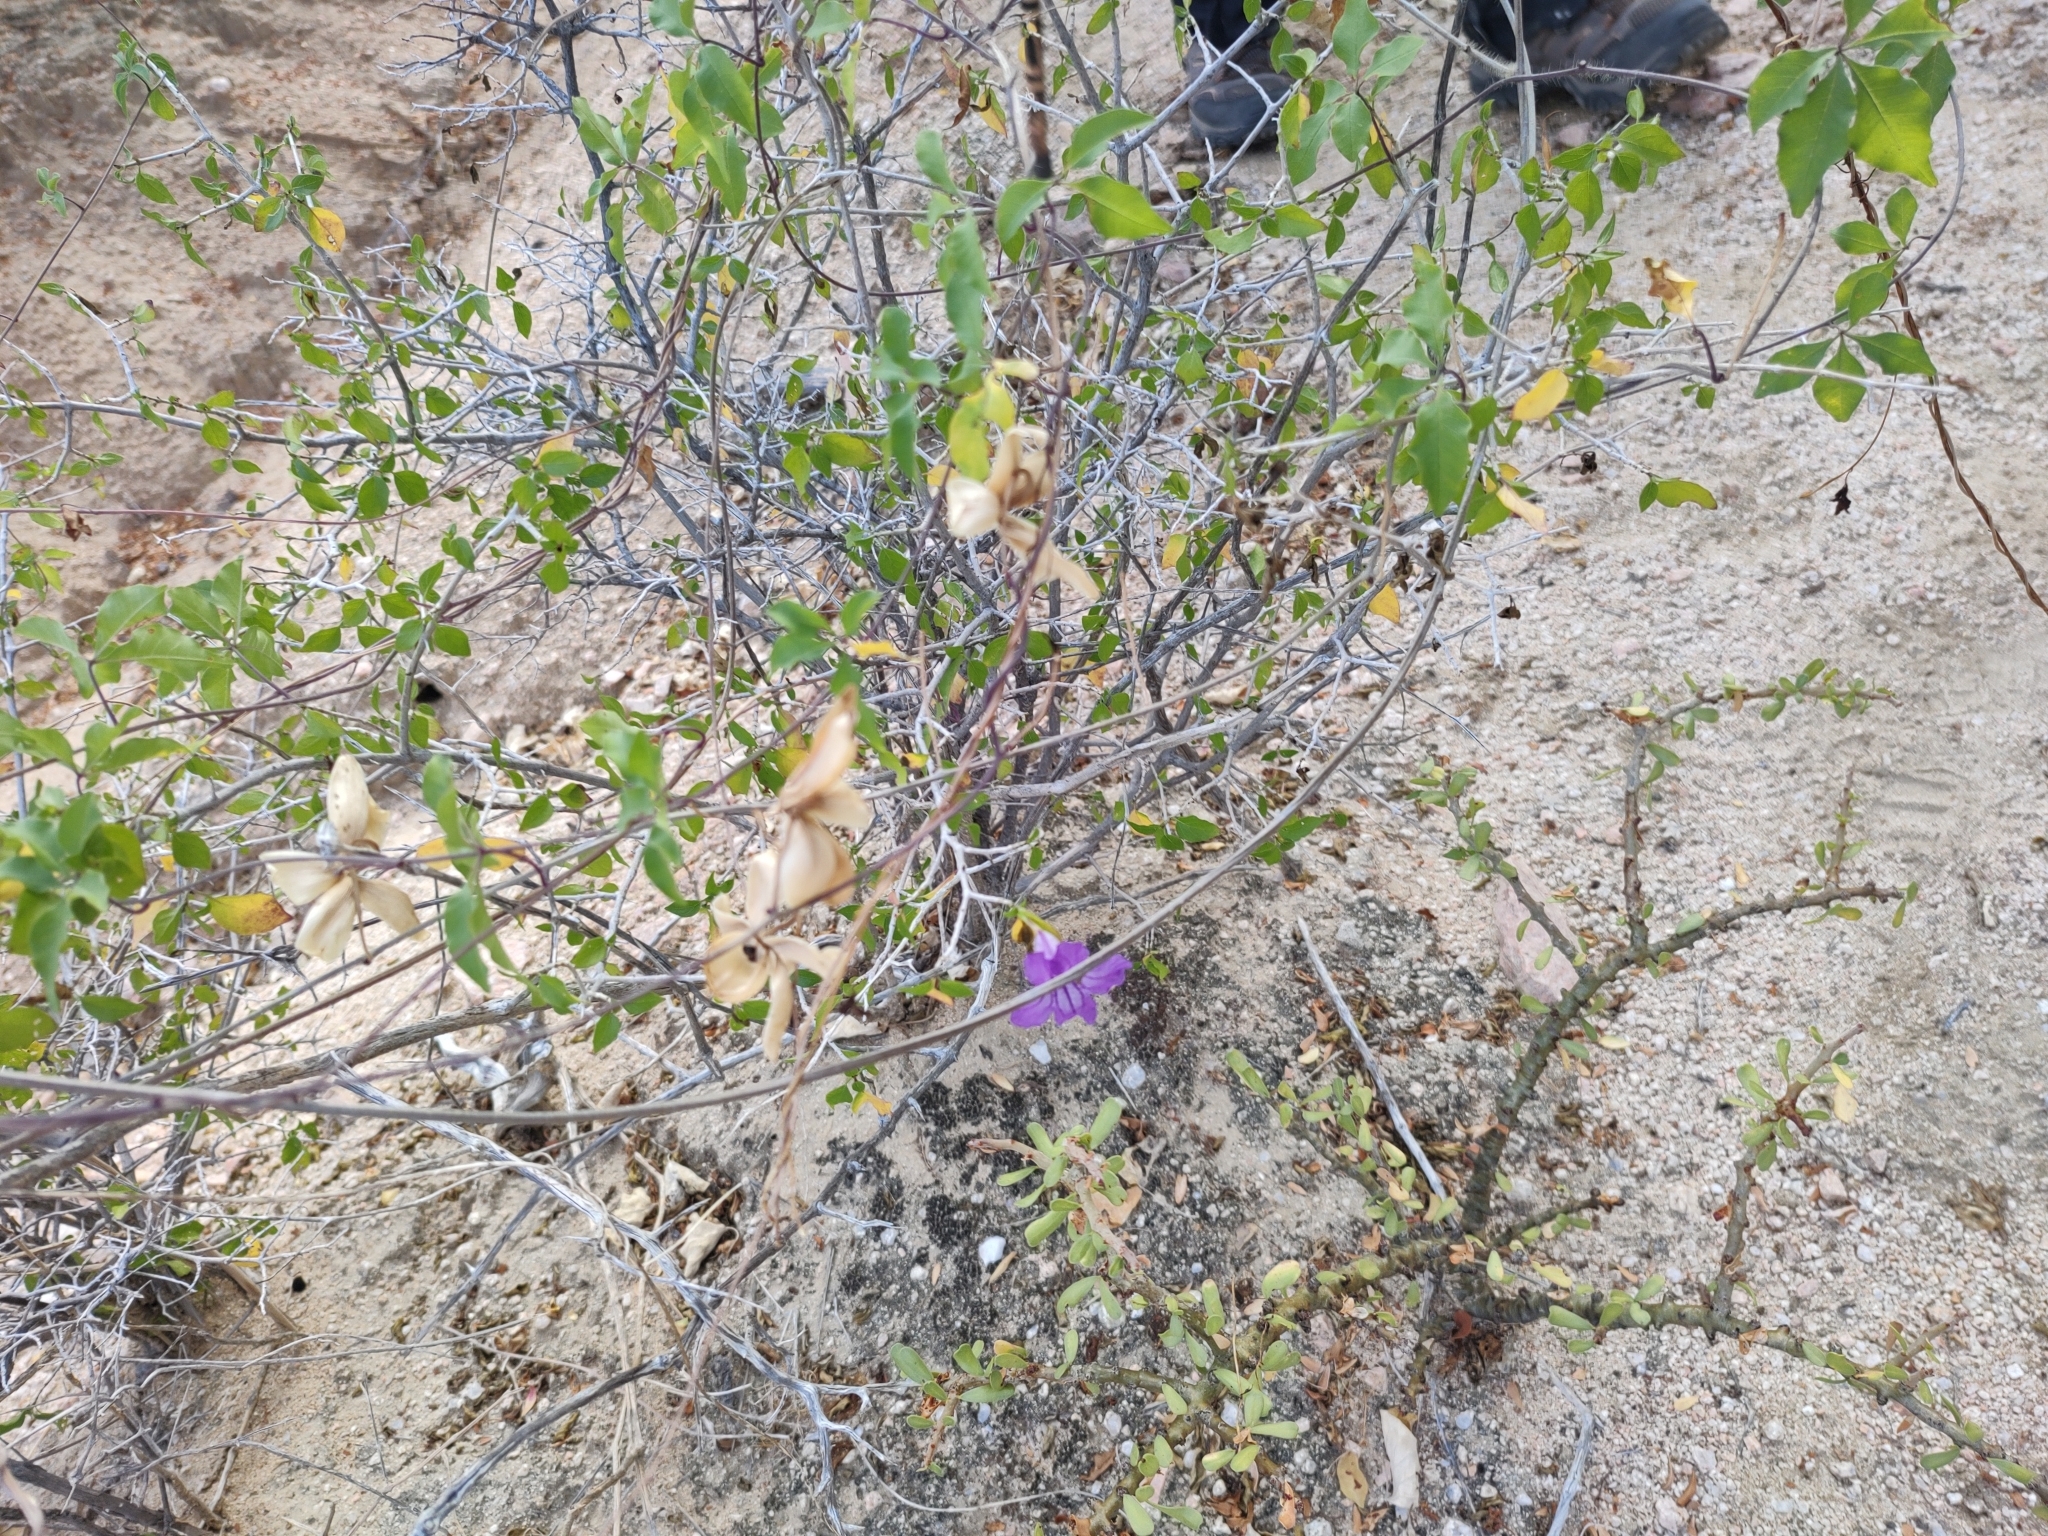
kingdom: Plantae
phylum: Tracheophyta
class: Magnoliopsida
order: Lamiales
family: Acanthaceae
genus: Ruellia
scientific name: Ruellia californica
